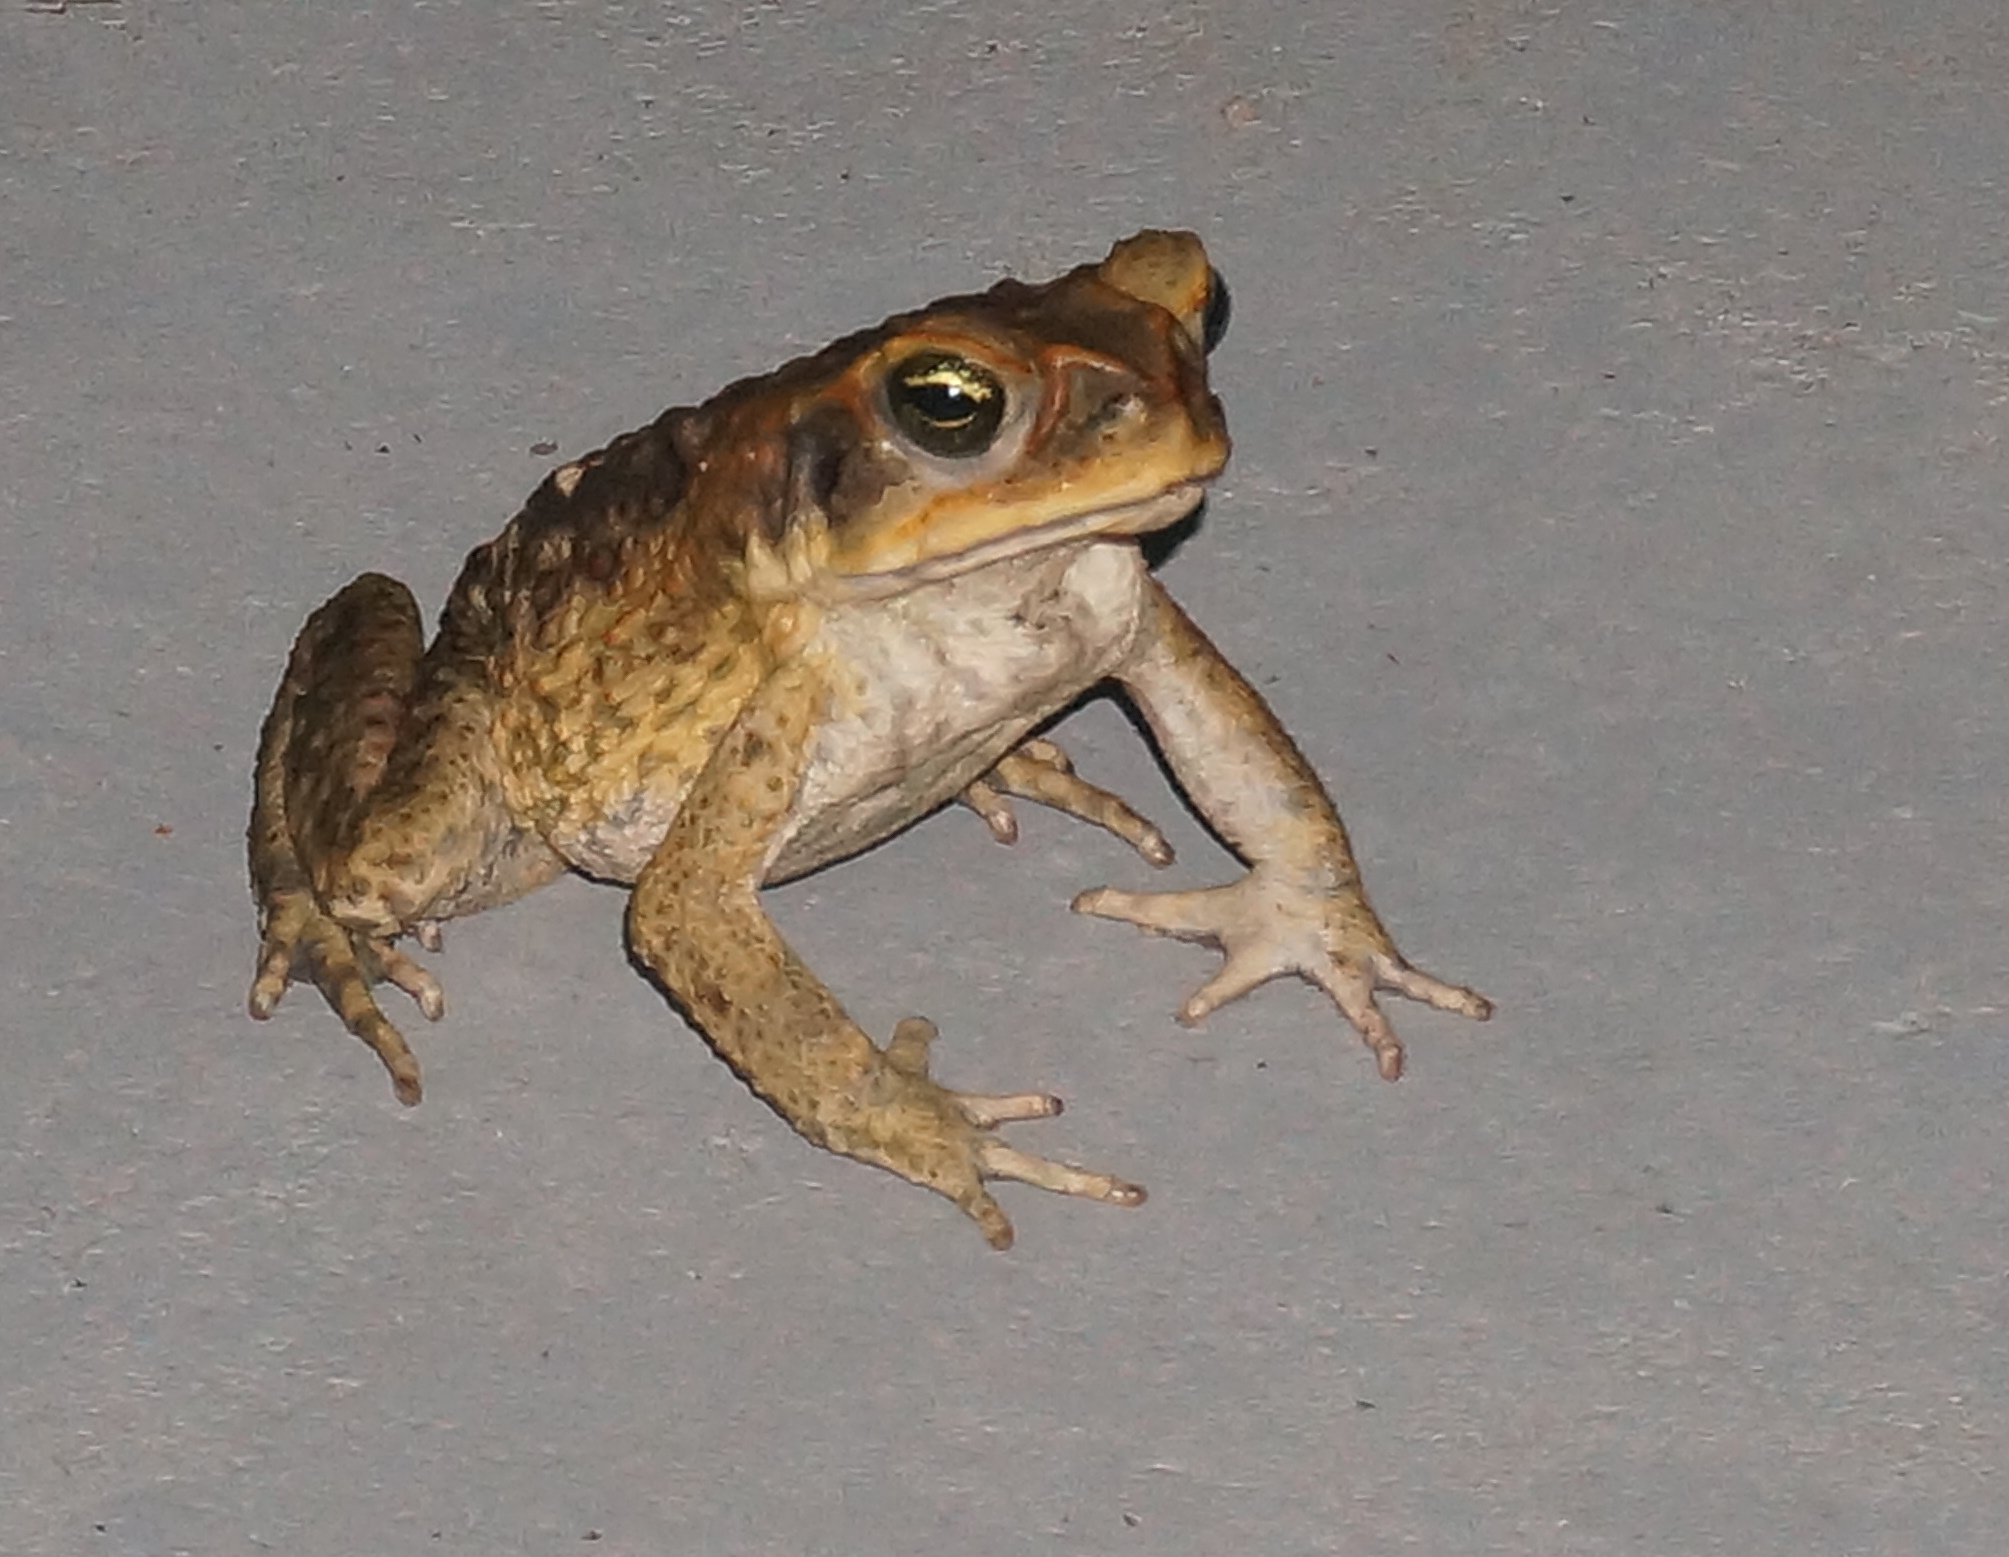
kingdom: Animalia
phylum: Chordata
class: Amphibia
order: Anura
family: Bufonidae
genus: Rhinella
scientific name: Rhinella marina
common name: Cane toad
